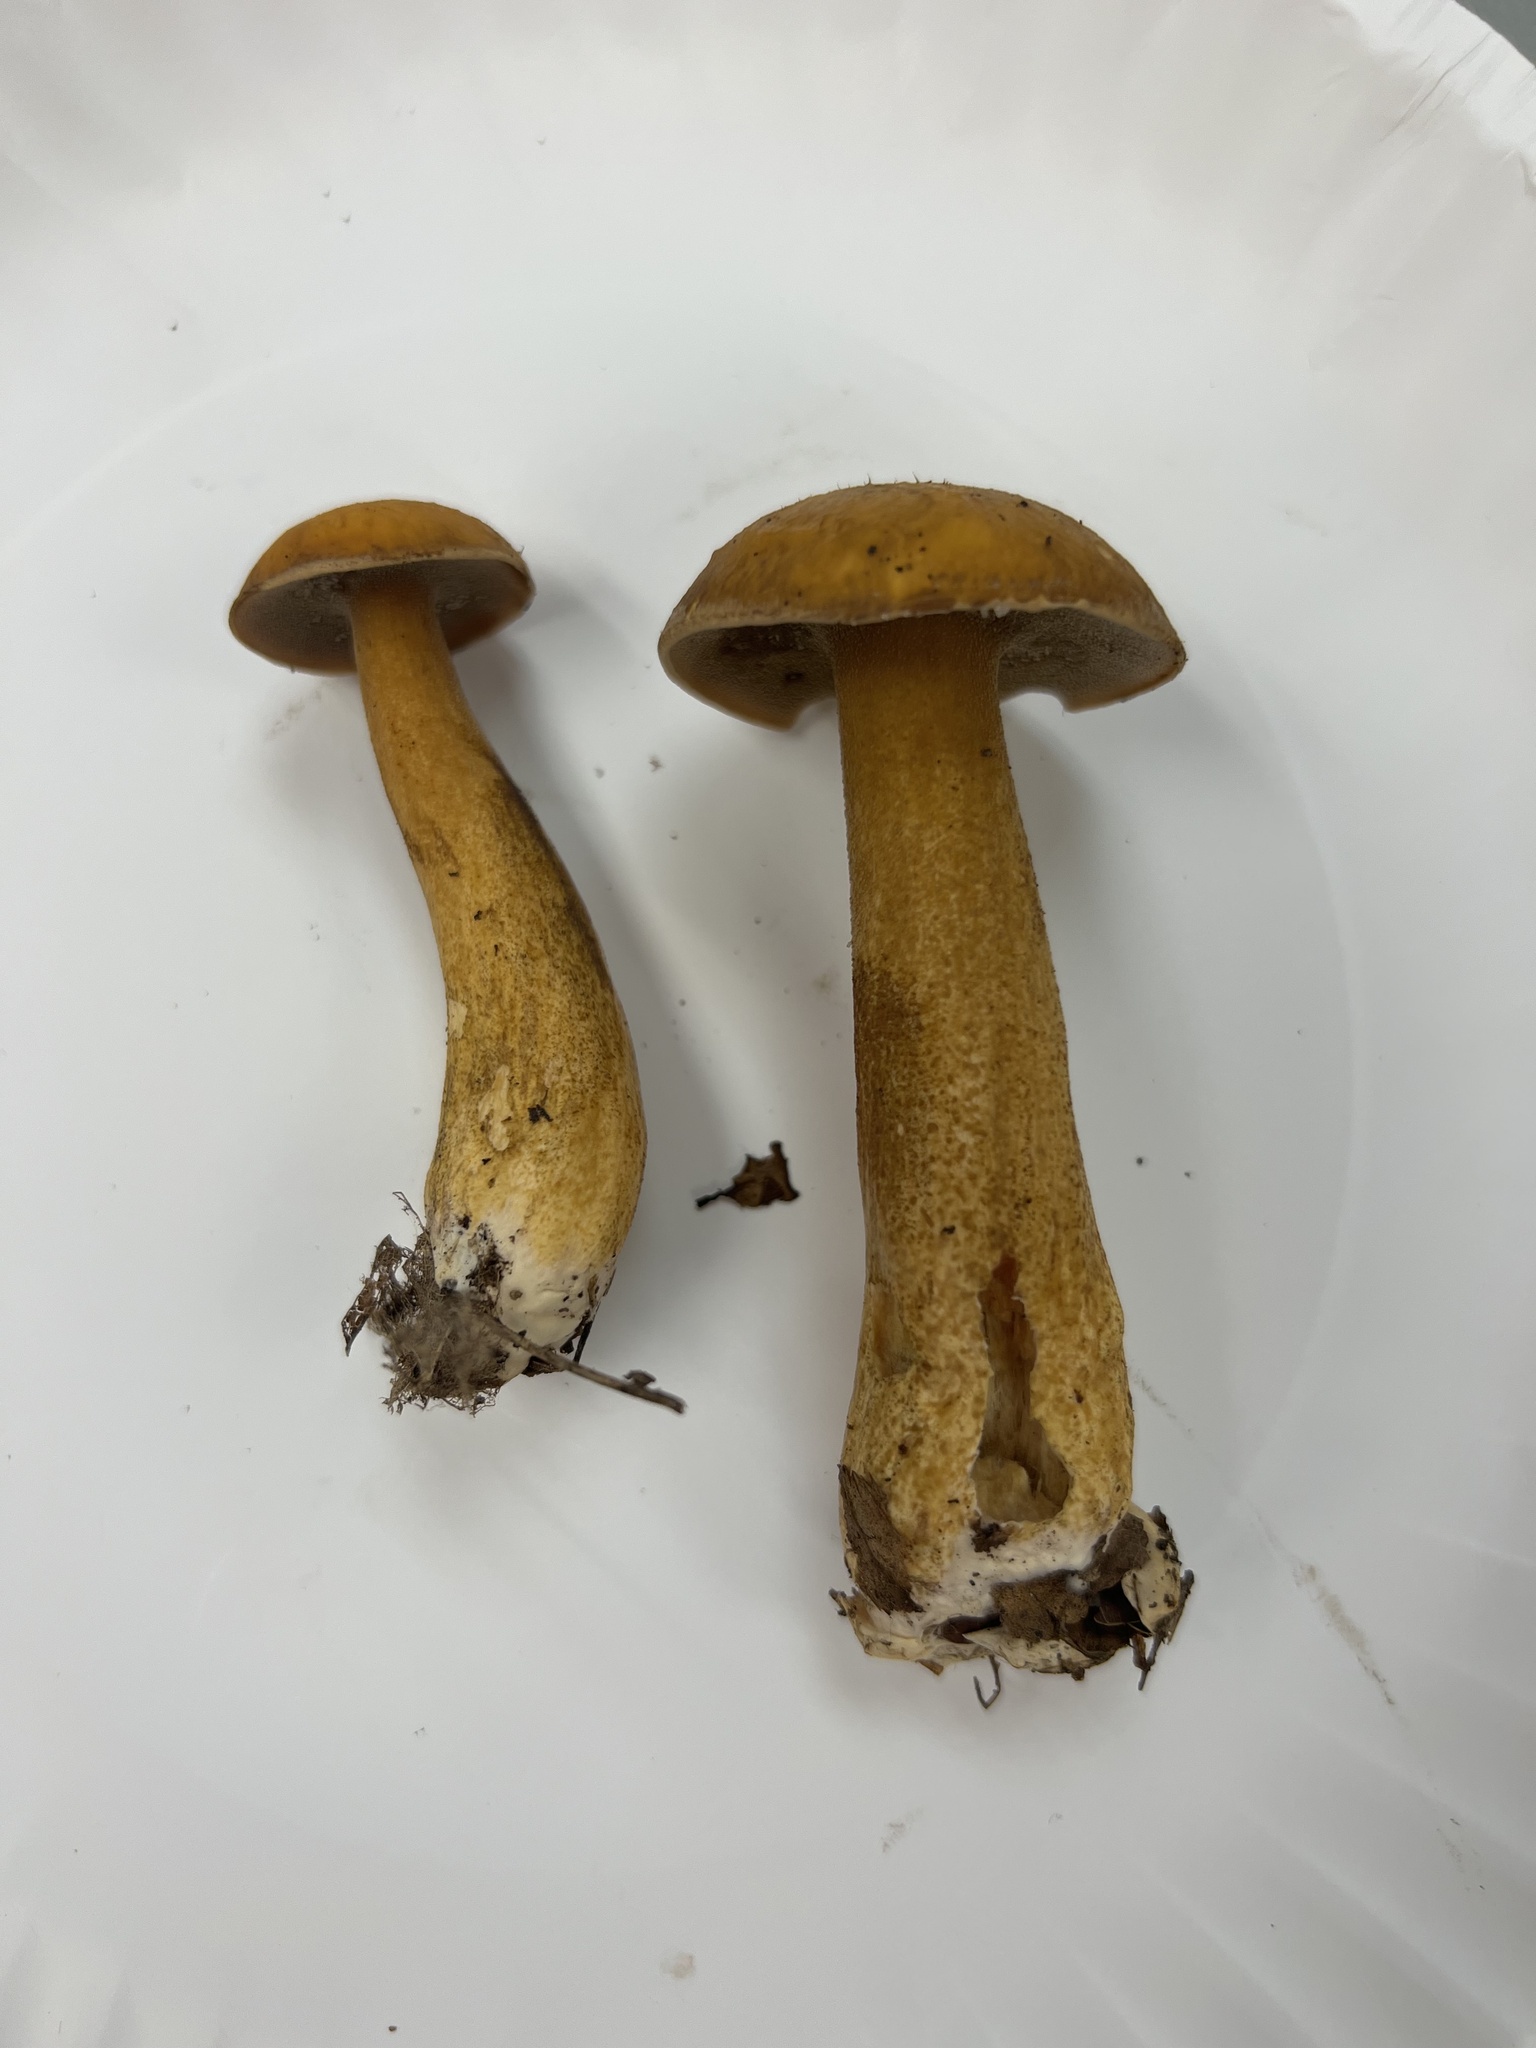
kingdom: Fungi
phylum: Basidiomycota
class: Agaricomycetes
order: Boletales
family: Suillaceae
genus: Suillus
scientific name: Suillus punctipes
